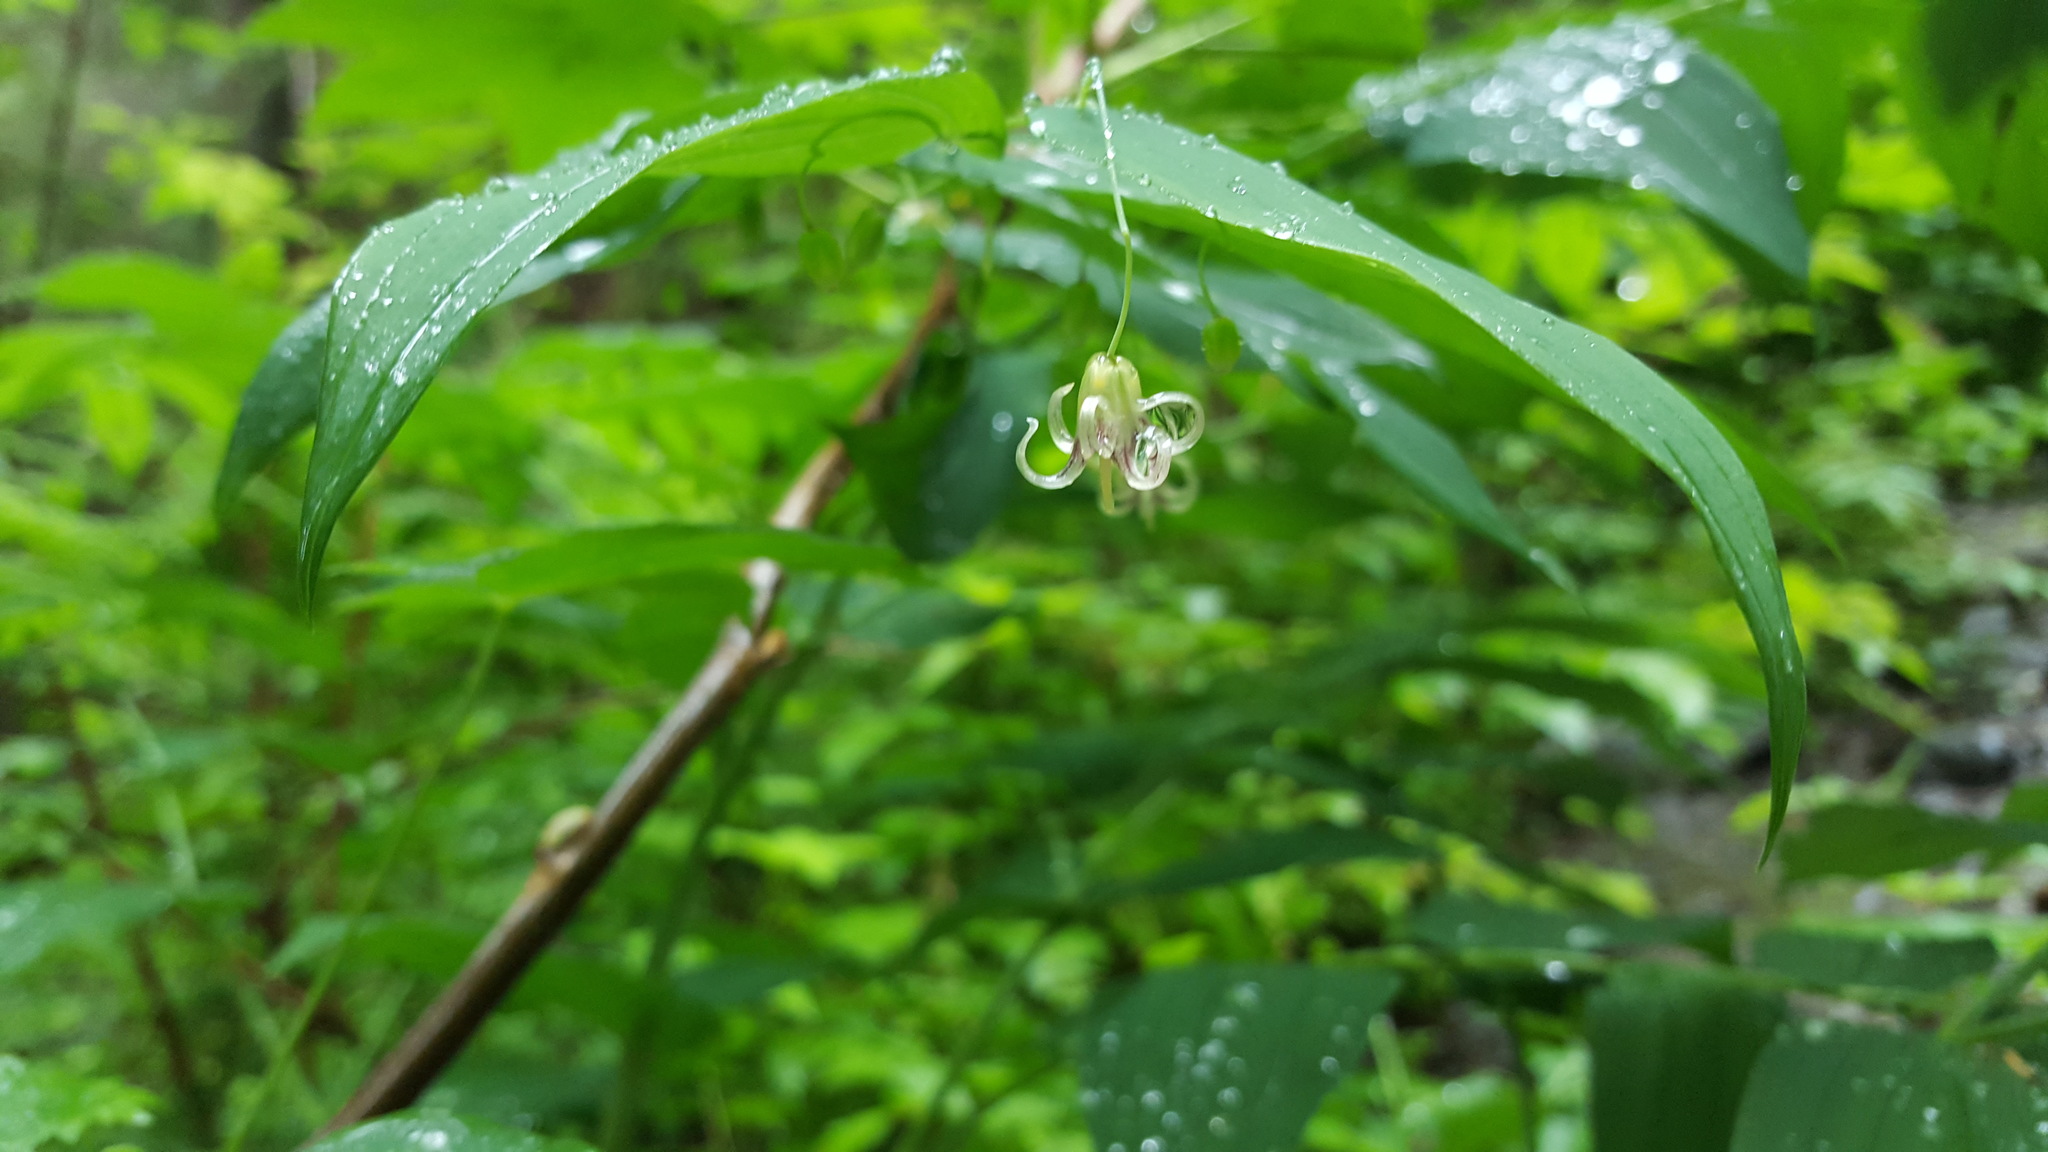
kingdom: Plantae
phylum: Tracheophyta
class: Liliopsida
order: Liliales
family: Liliaceae
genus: Streptopus
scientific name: Streptopus amplexifolius
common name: Clasp twisted stalk
